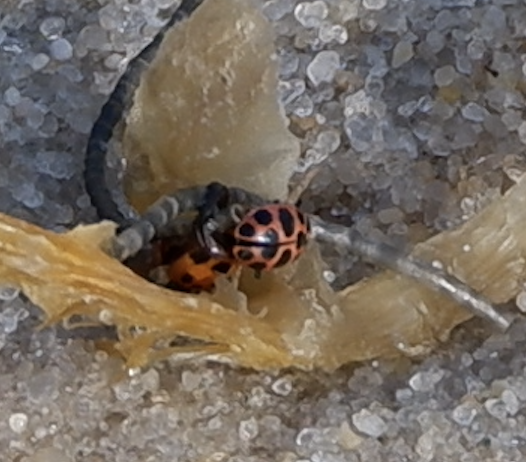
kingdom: Animalia
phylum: Arthropoda
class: Insecta
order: Coleoptera
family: Coccinellidae
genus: Coleomegilla
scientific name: Coleomegilla maculata
